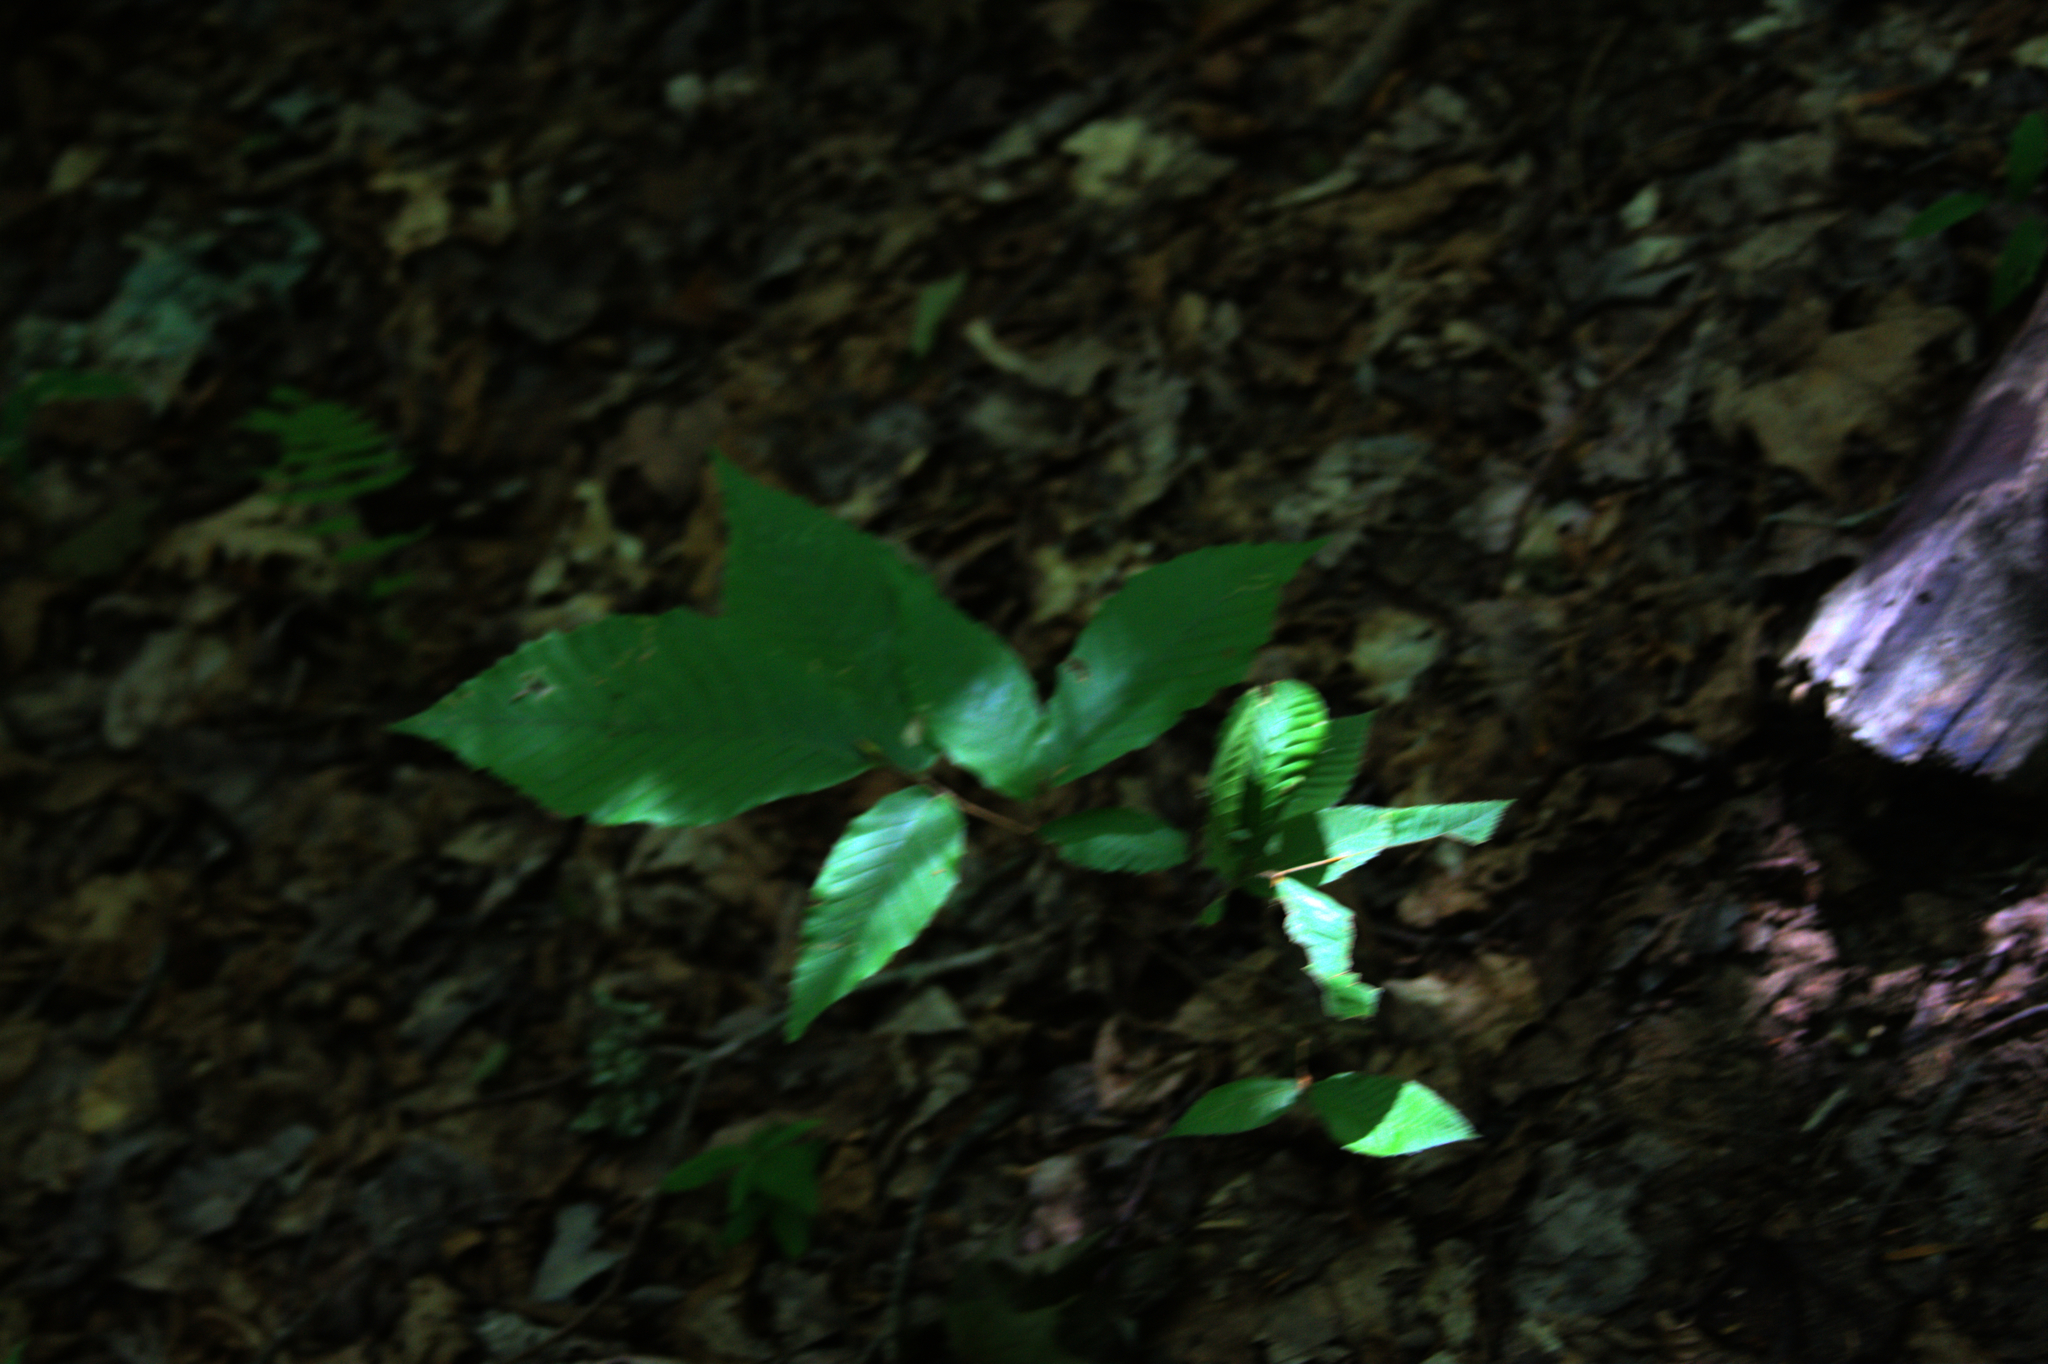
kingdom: Plantae
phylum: Tracheophyta
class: Magnoliopsida
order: Fagales
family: Fagaceae
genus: Fagus
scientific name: Fagus grandifolia
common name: American beech
